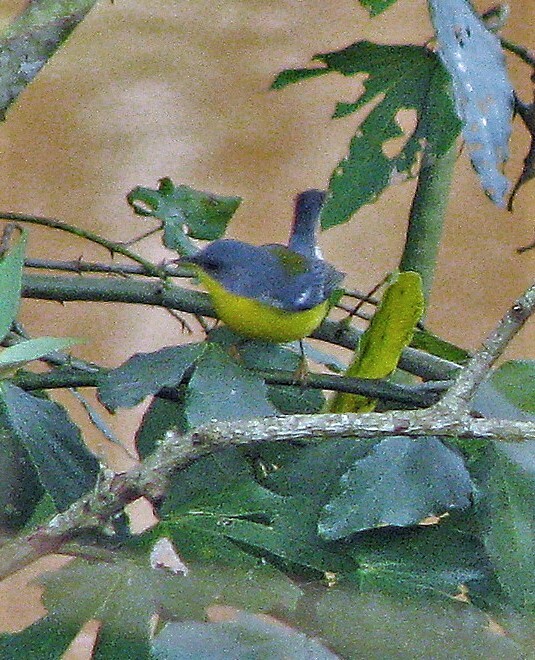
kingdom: Animalia
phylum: Chordata
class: Aves
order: Passeriformes
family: Parulidae
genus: Setophaga
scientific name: Setophaga pitiayumi
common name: Tropical parula
